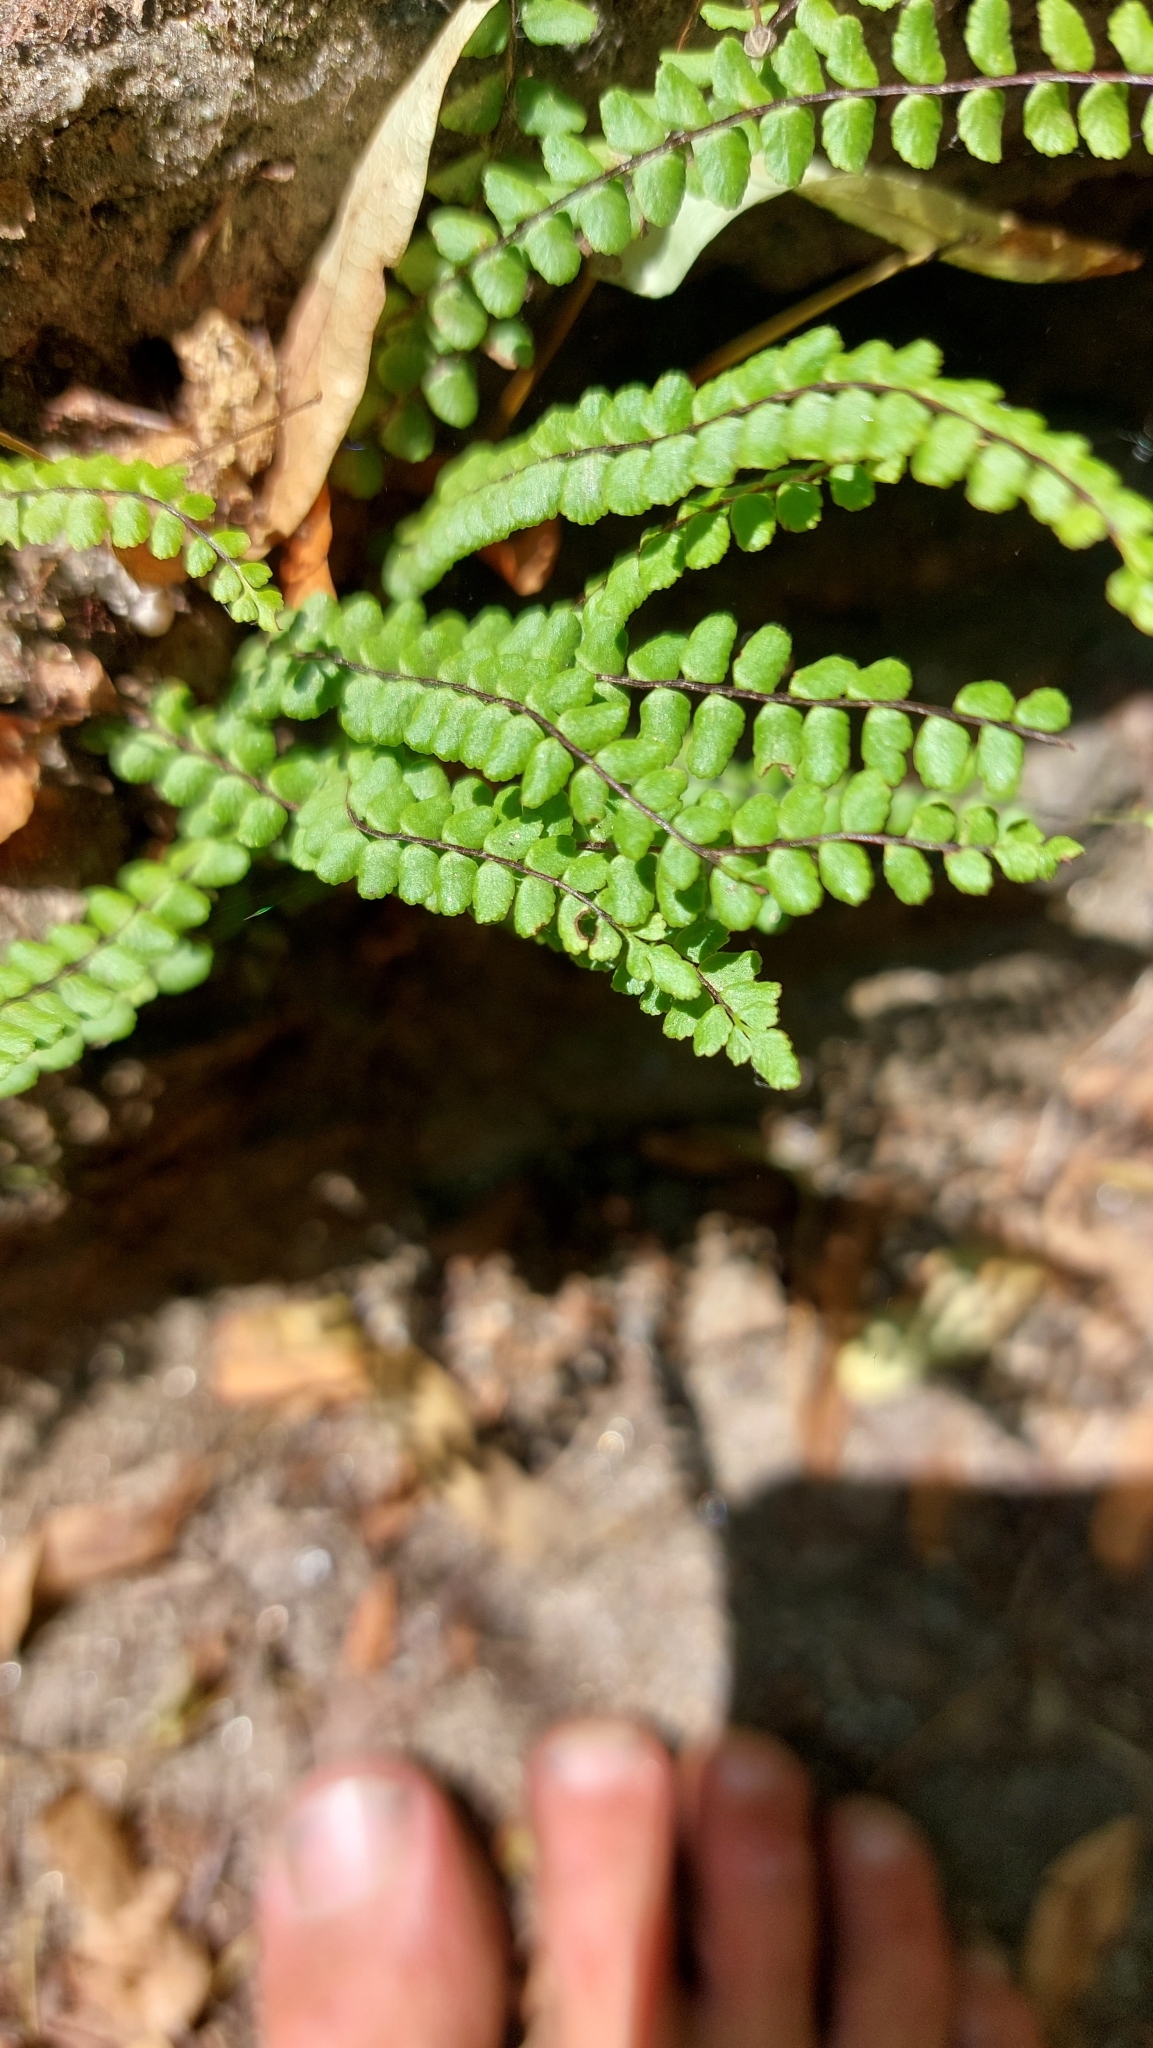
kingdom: Plantae
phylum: Tracheophyta
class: Polypodiopsida
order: Polypodiales
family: Aspleniaceae
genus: Asplenium
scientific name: Asplenium trichomanes
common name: Maidenhair spleenwort
